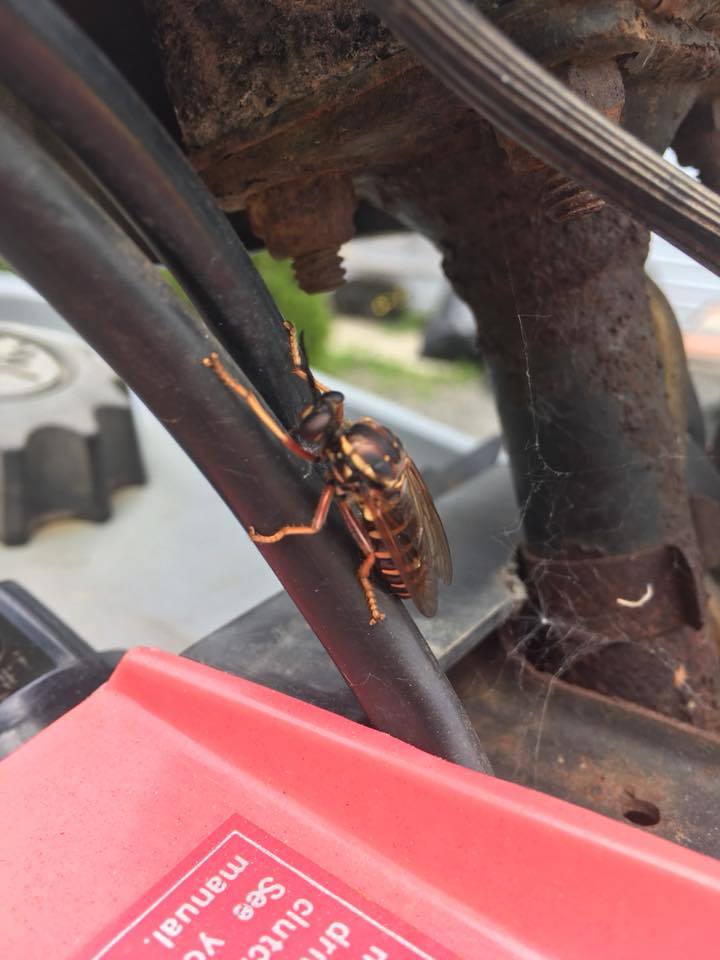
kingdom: Animalia
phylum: Arthropoda
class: Insecta
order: Diptera
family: Asilidae
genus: Ceraturgus
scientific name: Ceraturgus fasciatus
